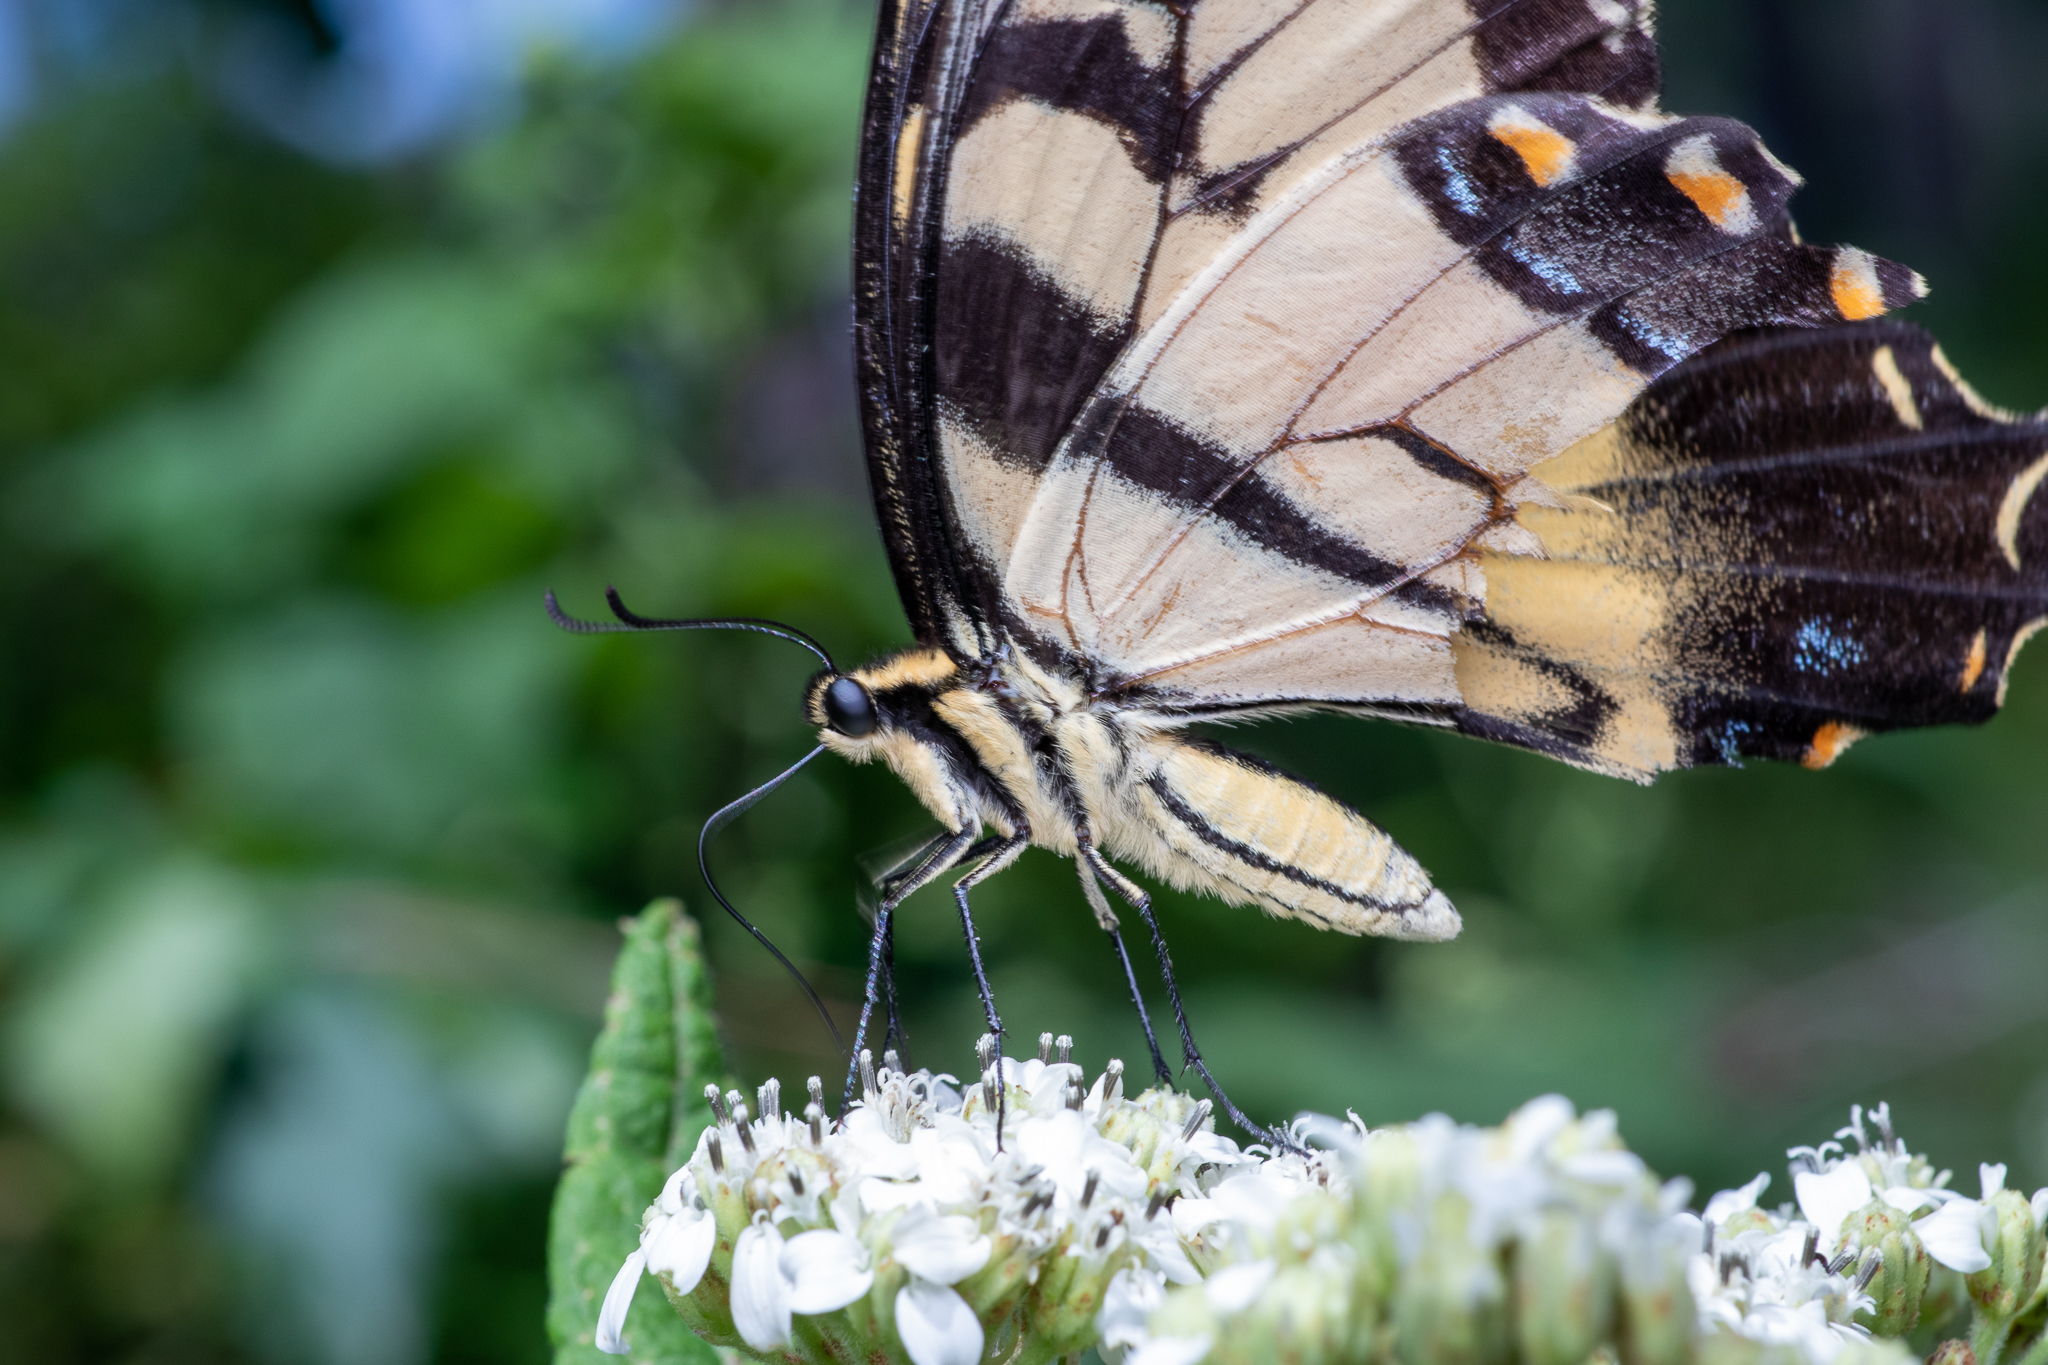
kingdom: Animalia
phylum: Arthropoda
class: Insecta
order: Lepidoptera
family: Papilionidae
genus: Papilio
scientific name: Papilio glaucus
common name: Tiger swallowtail
